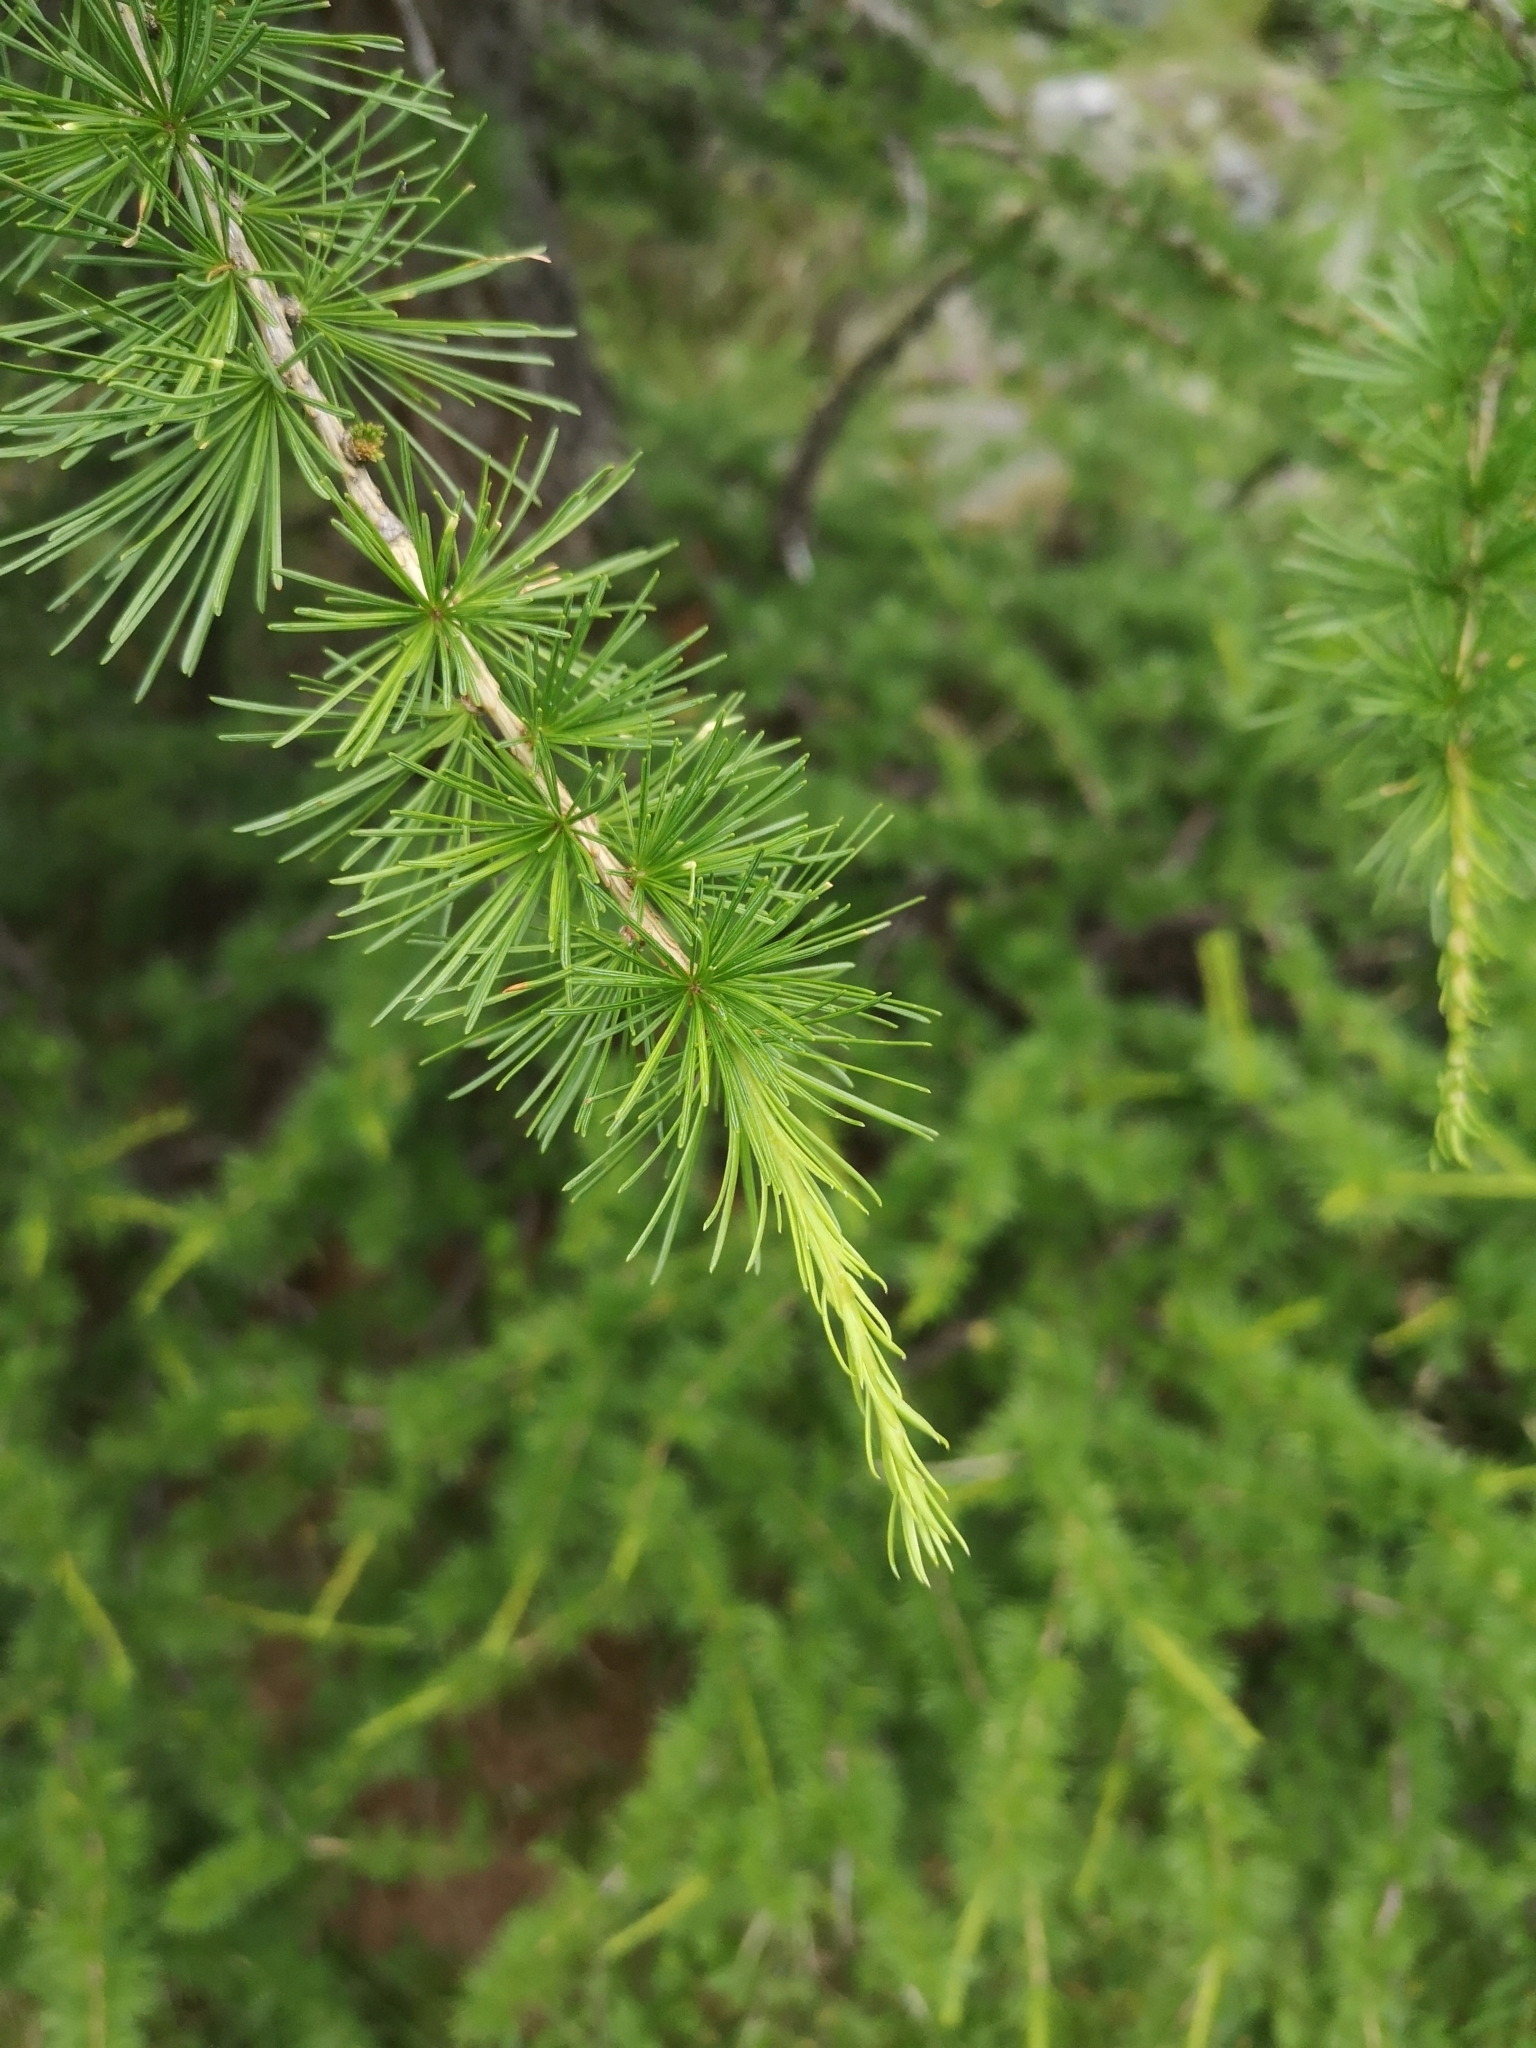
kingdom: Plantae
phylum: Tracheophyta
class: Pinopsida
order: Pinales
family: Pinaceae
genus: Larix
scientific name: Larix decidua
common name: European larch
